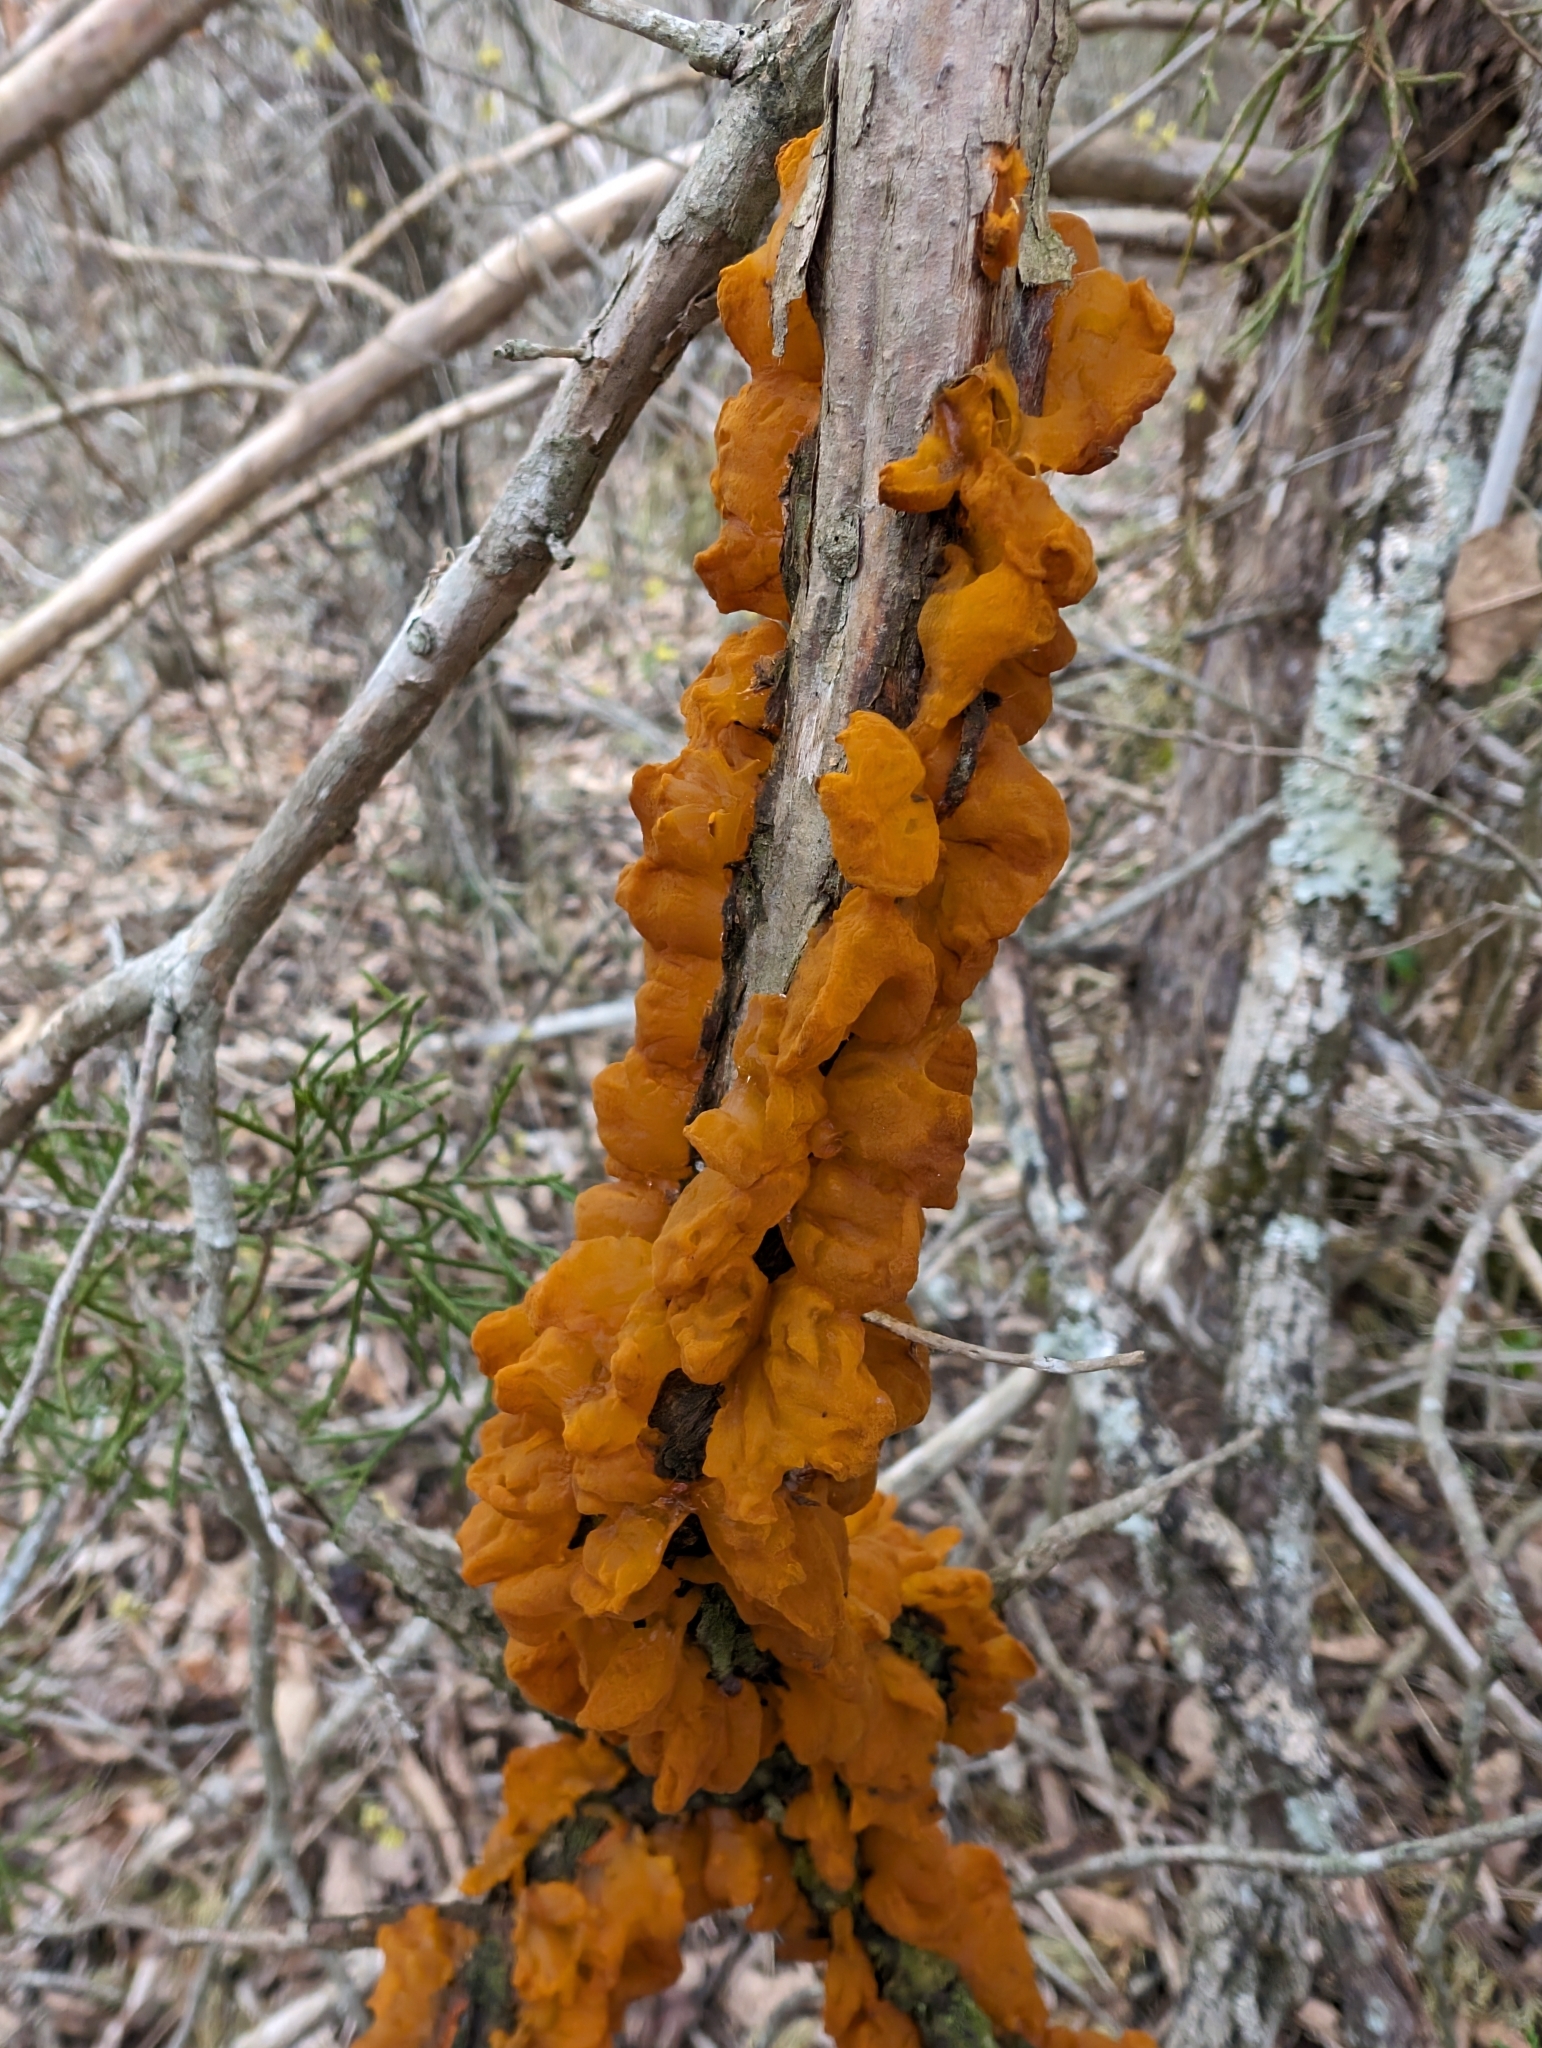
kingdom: Fungi
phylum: Basidiomycota
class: Pucciniomycetes
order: Pucciniales
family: Gymnosporangiaceae
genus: Gymnosporangium
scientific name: Gymnosporangium clavipes
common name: Quince rust
